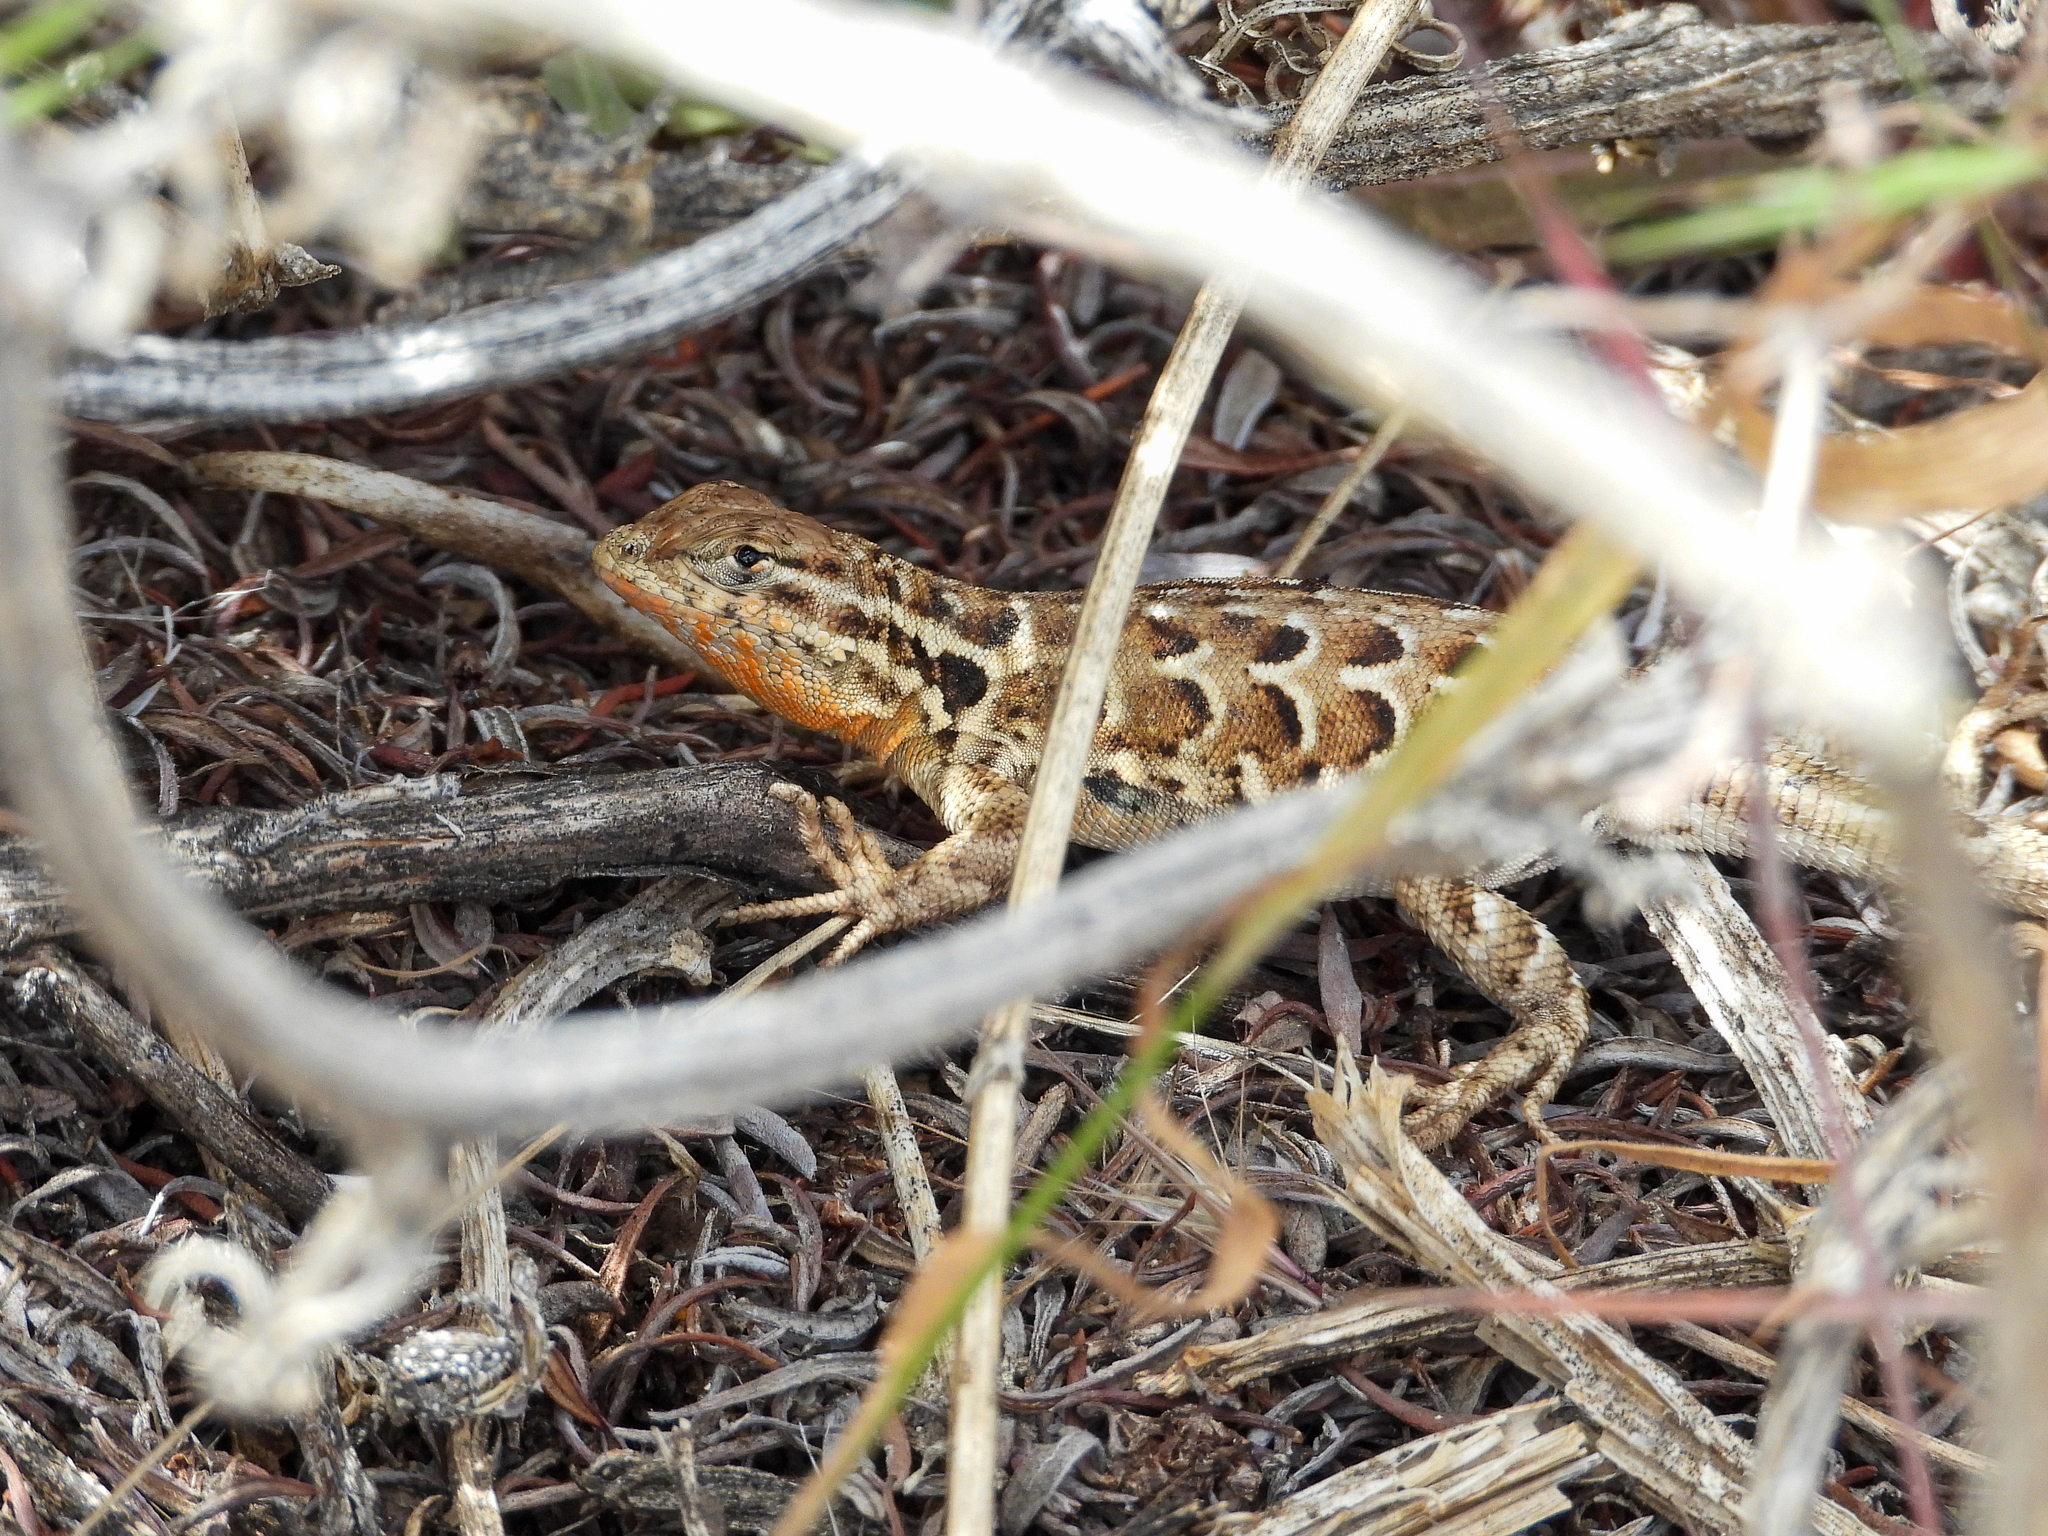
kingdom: Animalia
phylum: Chordata
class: Squamata
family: Phrynosomatidae
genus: Uta
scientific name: Uta stansburiana
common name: Side-blotched lizard
